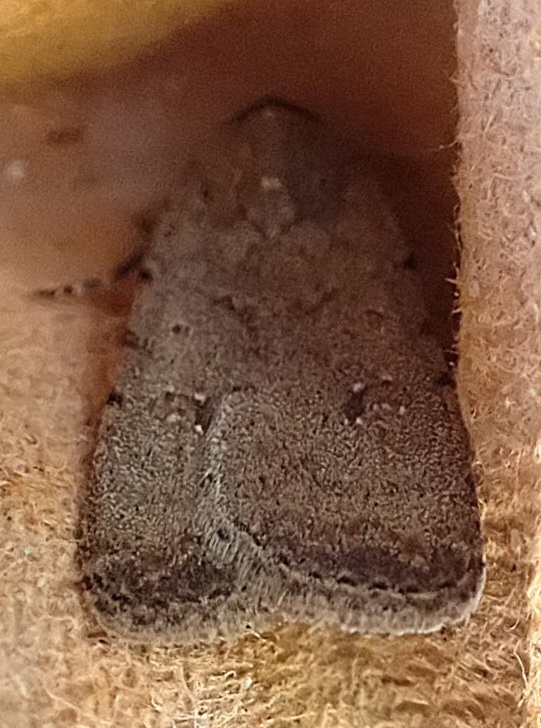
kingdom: Animalia
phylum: Arthropoda
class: Insecta
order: Lepidoptera
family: Noctuidae
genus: Caradrina
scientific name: Caradrina clavipalpis
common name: Pale mottled willow
